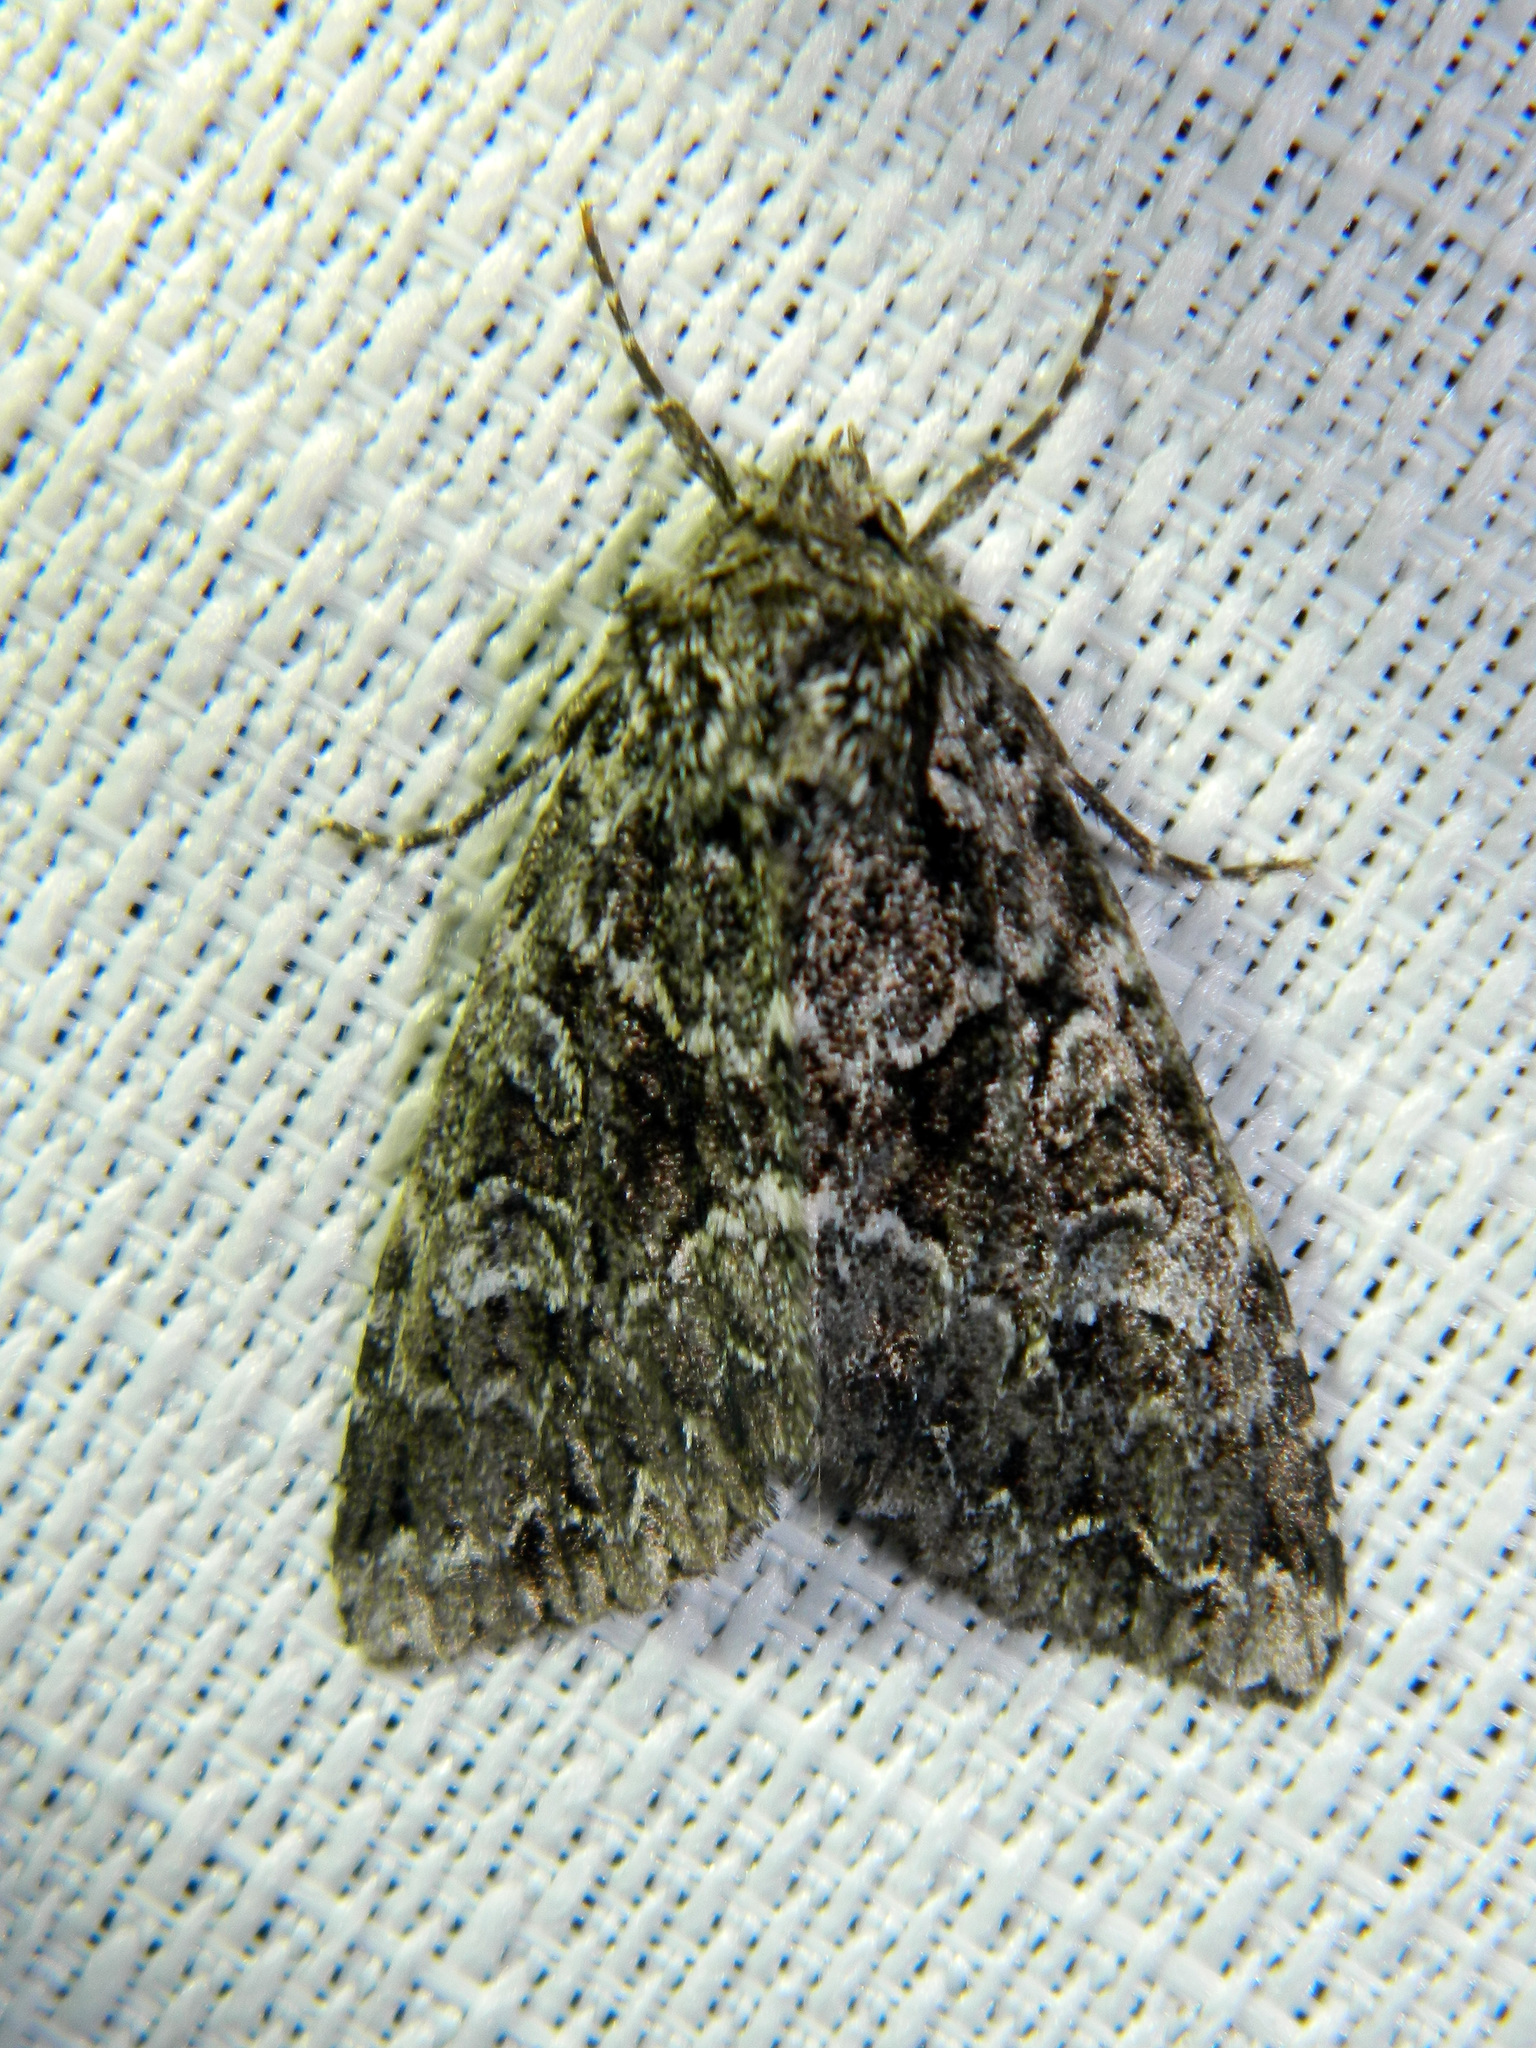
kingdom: Animalia
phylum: Arthropoda
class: Insecta
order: Lepidoptera
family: Noctuidae
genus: Platypolia
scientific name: Platypolia anceps
